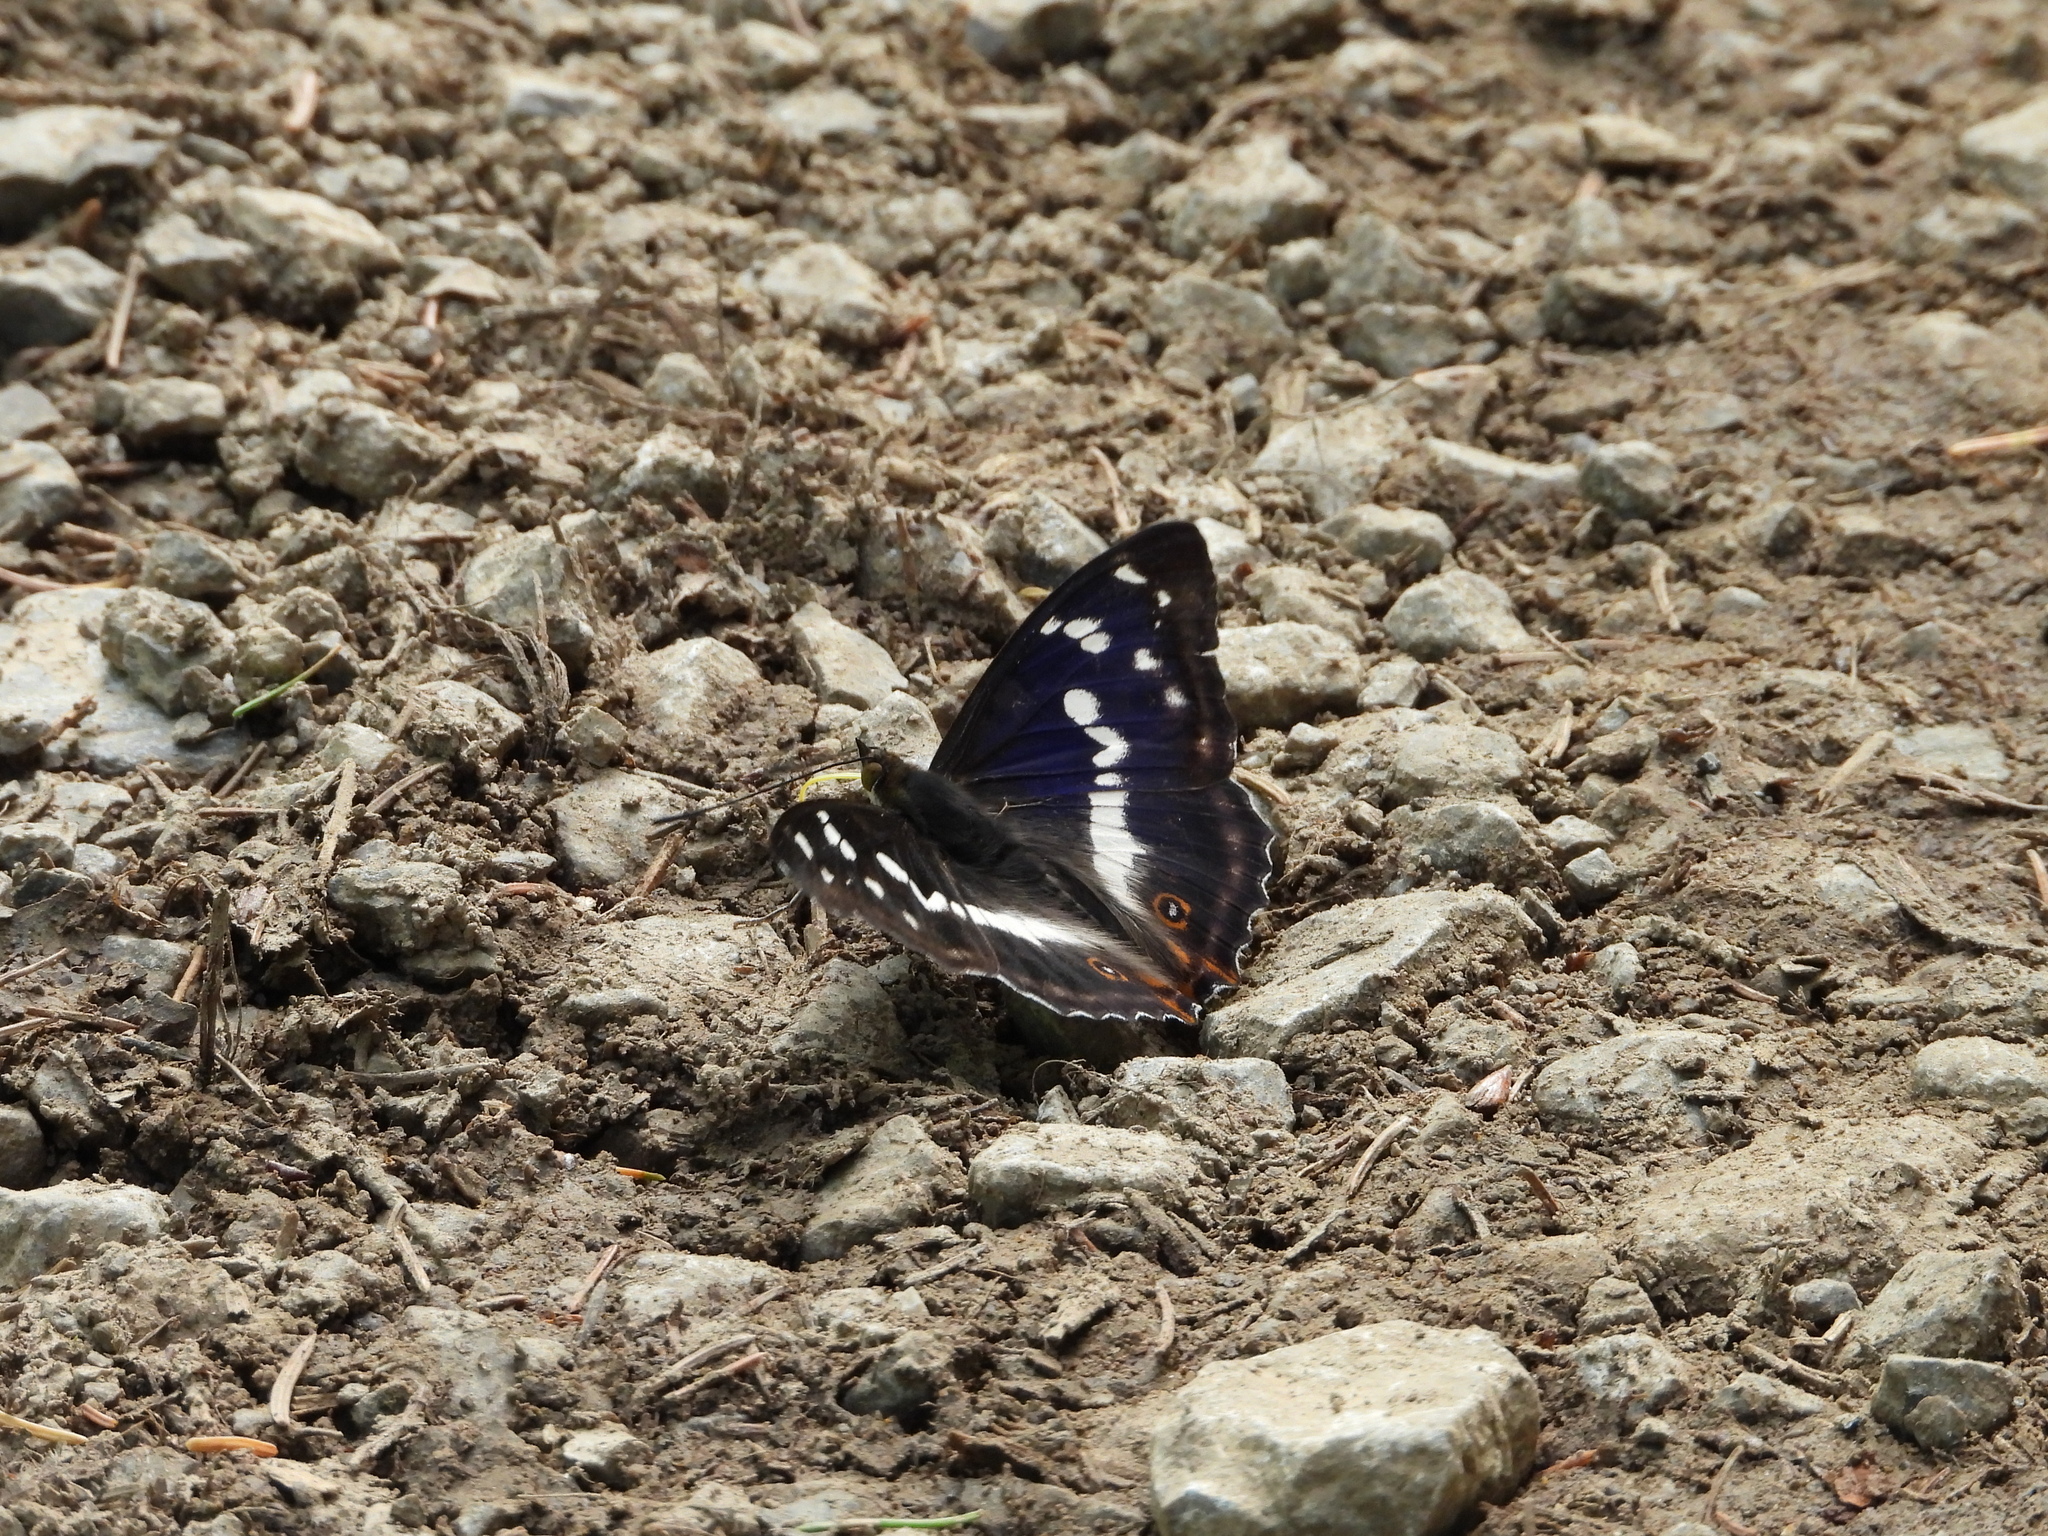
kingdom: Animalia
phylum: Arthropoda
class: Insecta
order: Lepidoptera
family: Nymphalidae
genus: Apatura
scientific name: Apatura iris
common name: Purple emperor
